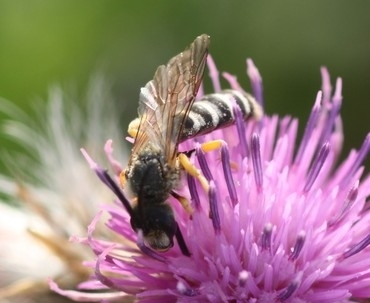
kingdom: Animalia
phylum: Arthropoda
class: Insecta
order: Hymenoptera
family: Halictidae
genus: Halictus
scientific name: Halictus scabiosae
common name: Great banded furrow bee
